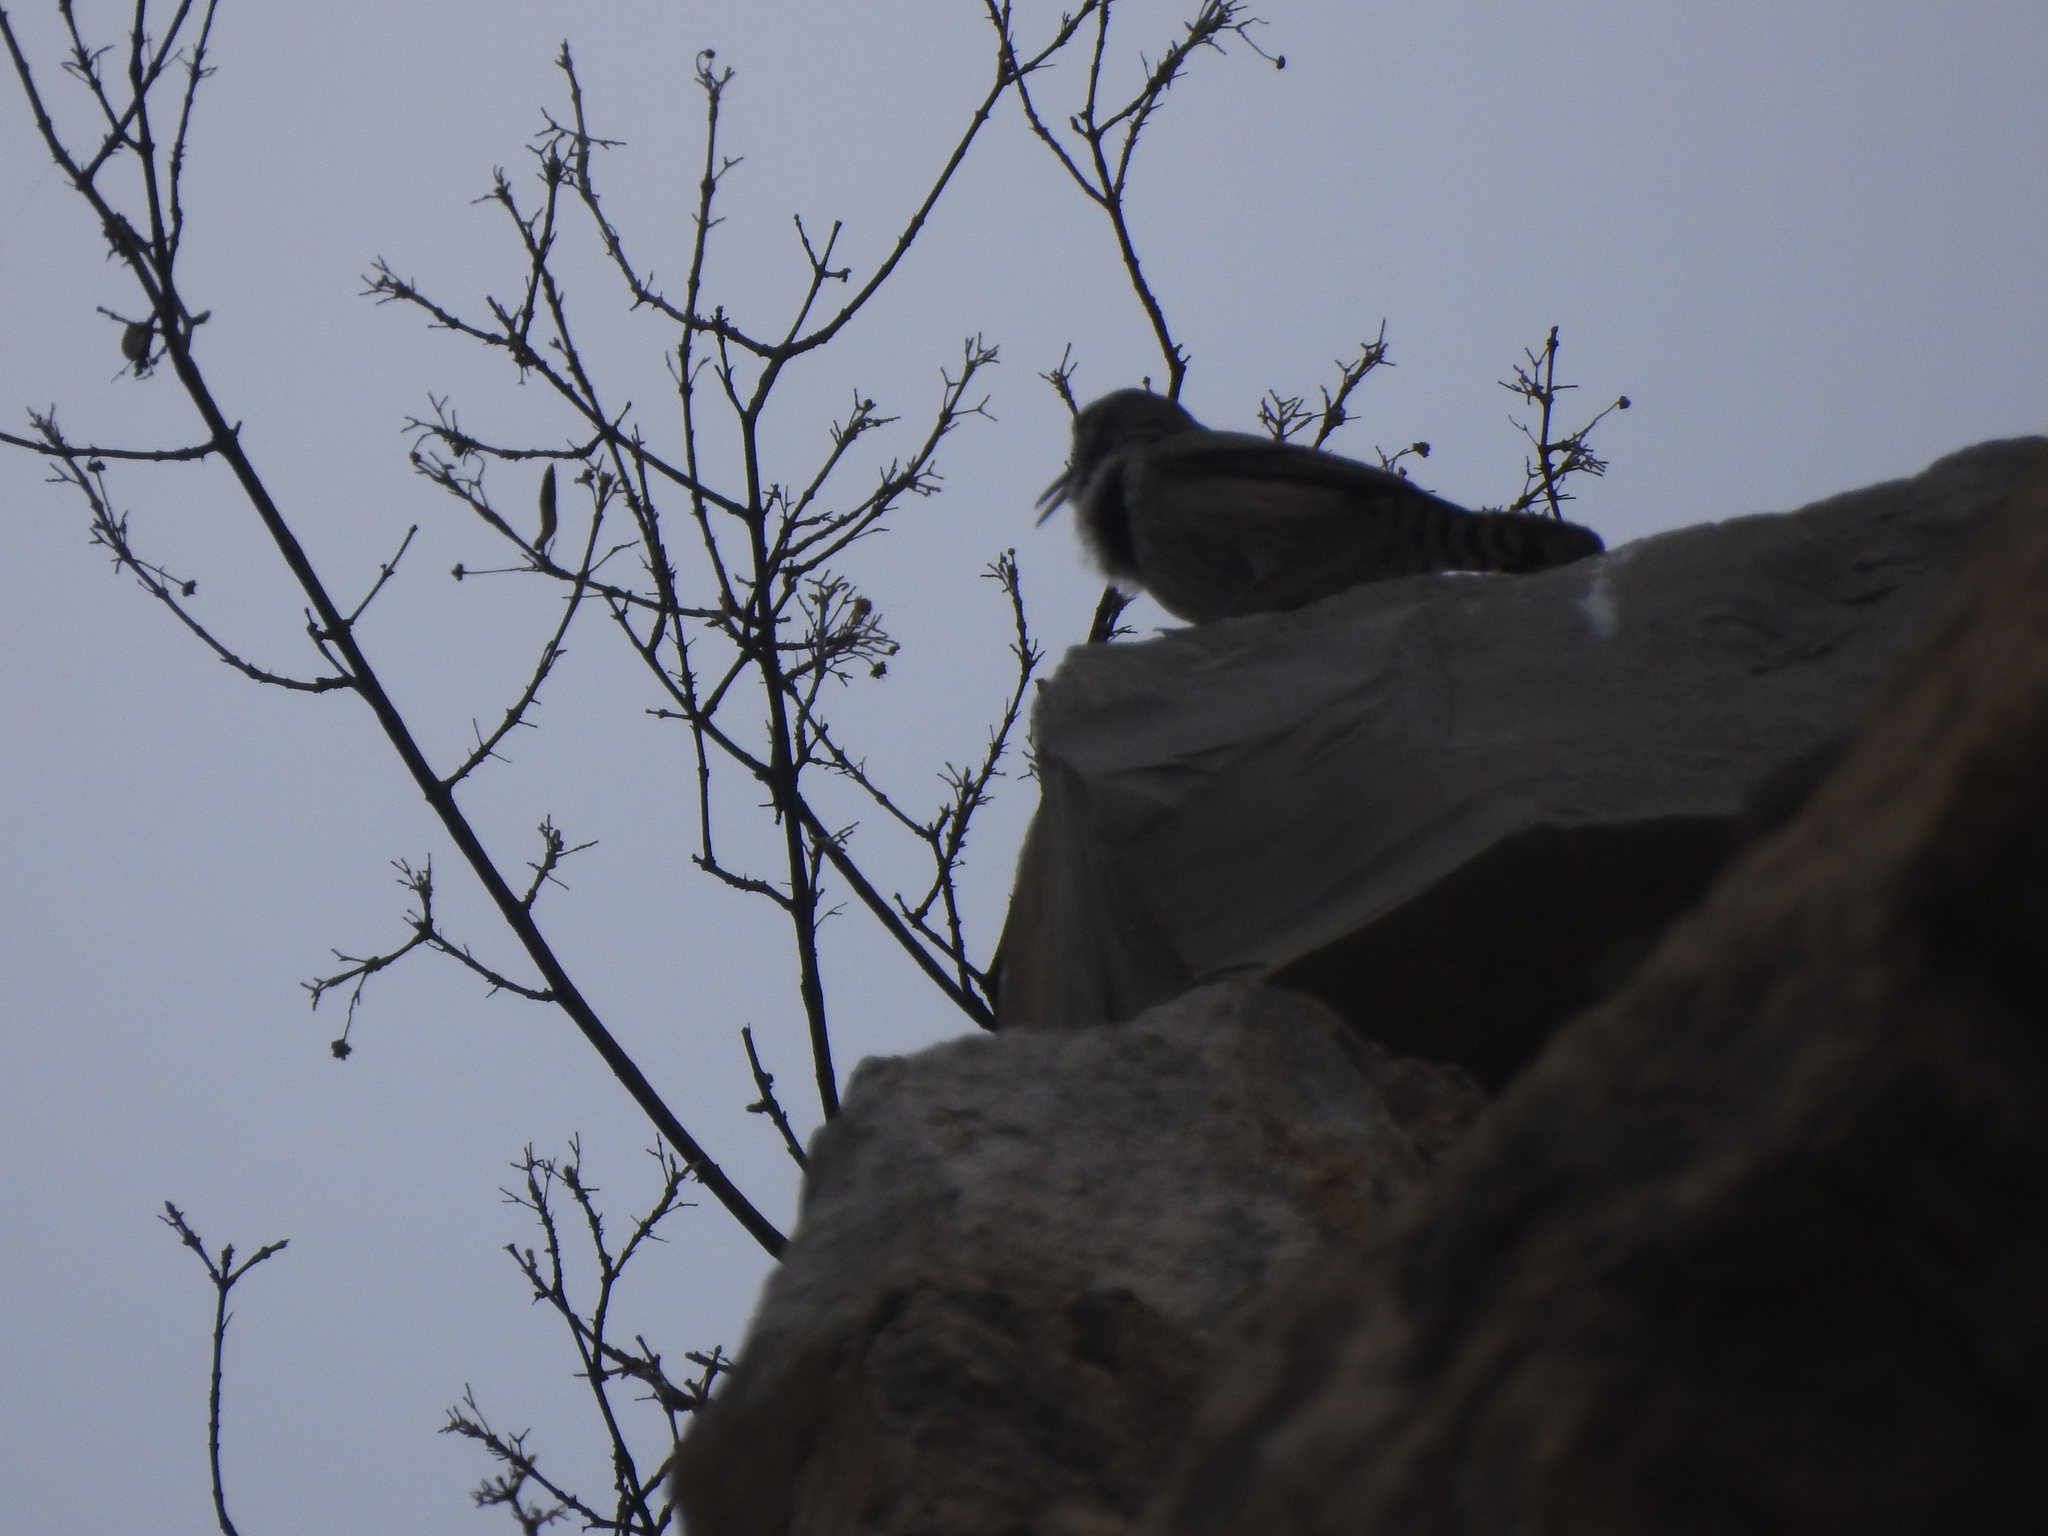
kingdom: Animalia
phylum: Chordata
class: Aves
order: Passeriformes
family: Troglodytidae
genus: Salpinctes
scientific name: Salpinctes obsoletus
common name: Rock wren
